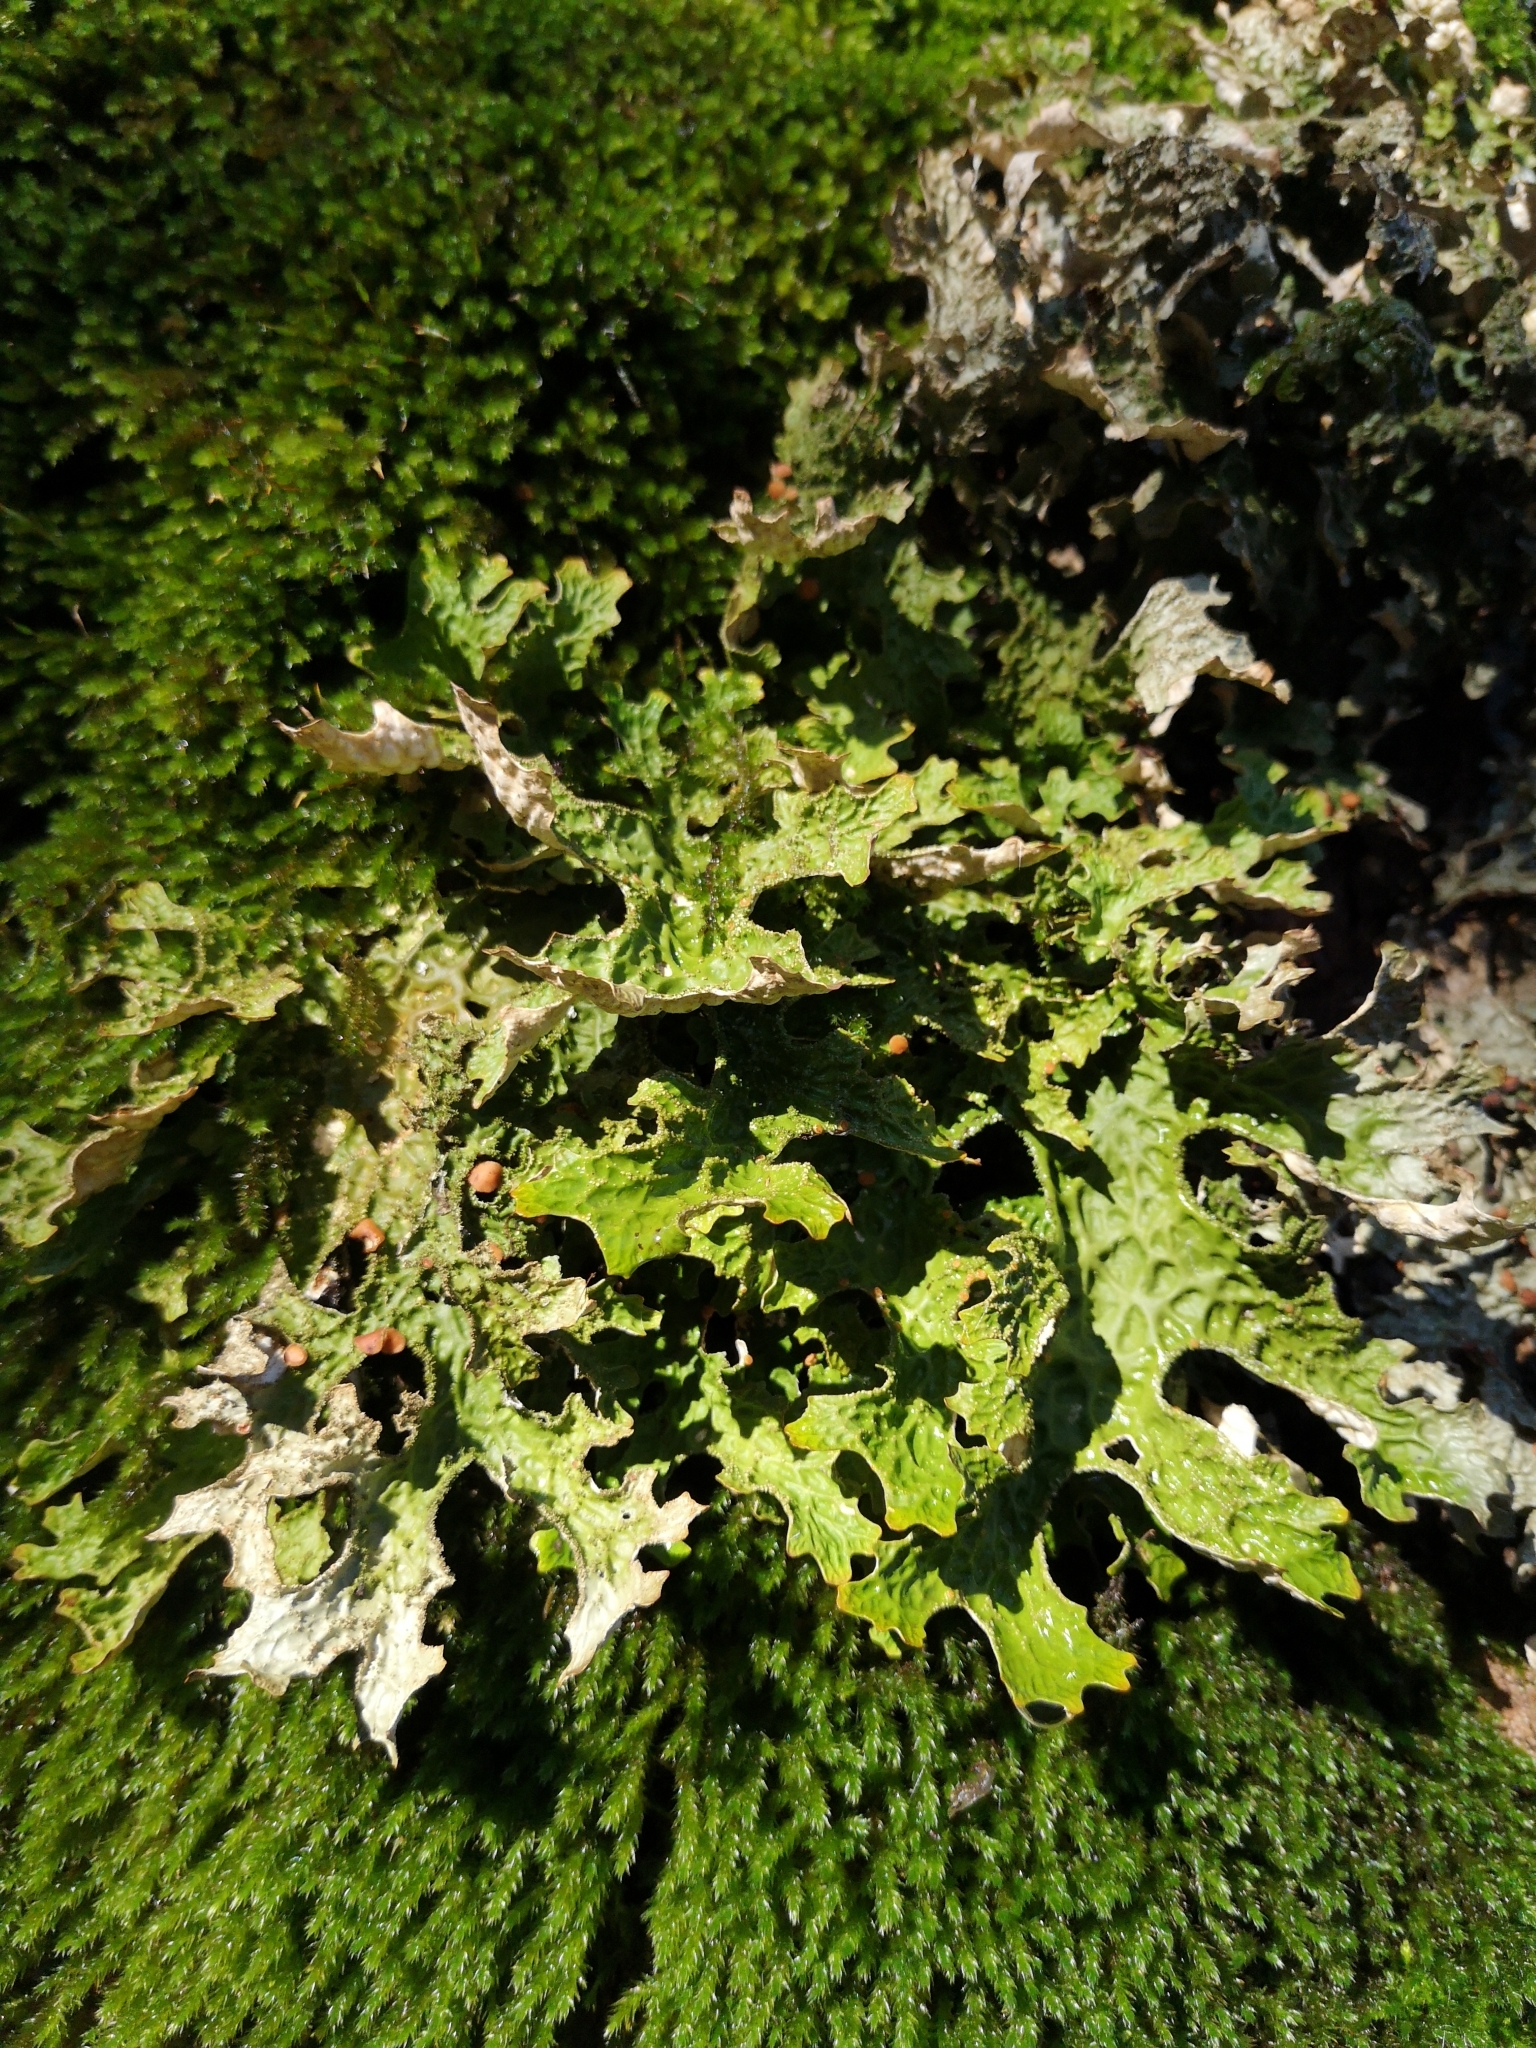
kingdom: Fungi
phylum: Ascomycota
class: Lecanoromycetes
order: Peltigerales
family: Lobariaceae
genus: Lobaria
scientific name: Lobaria pulmonaria
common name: Lungwort
